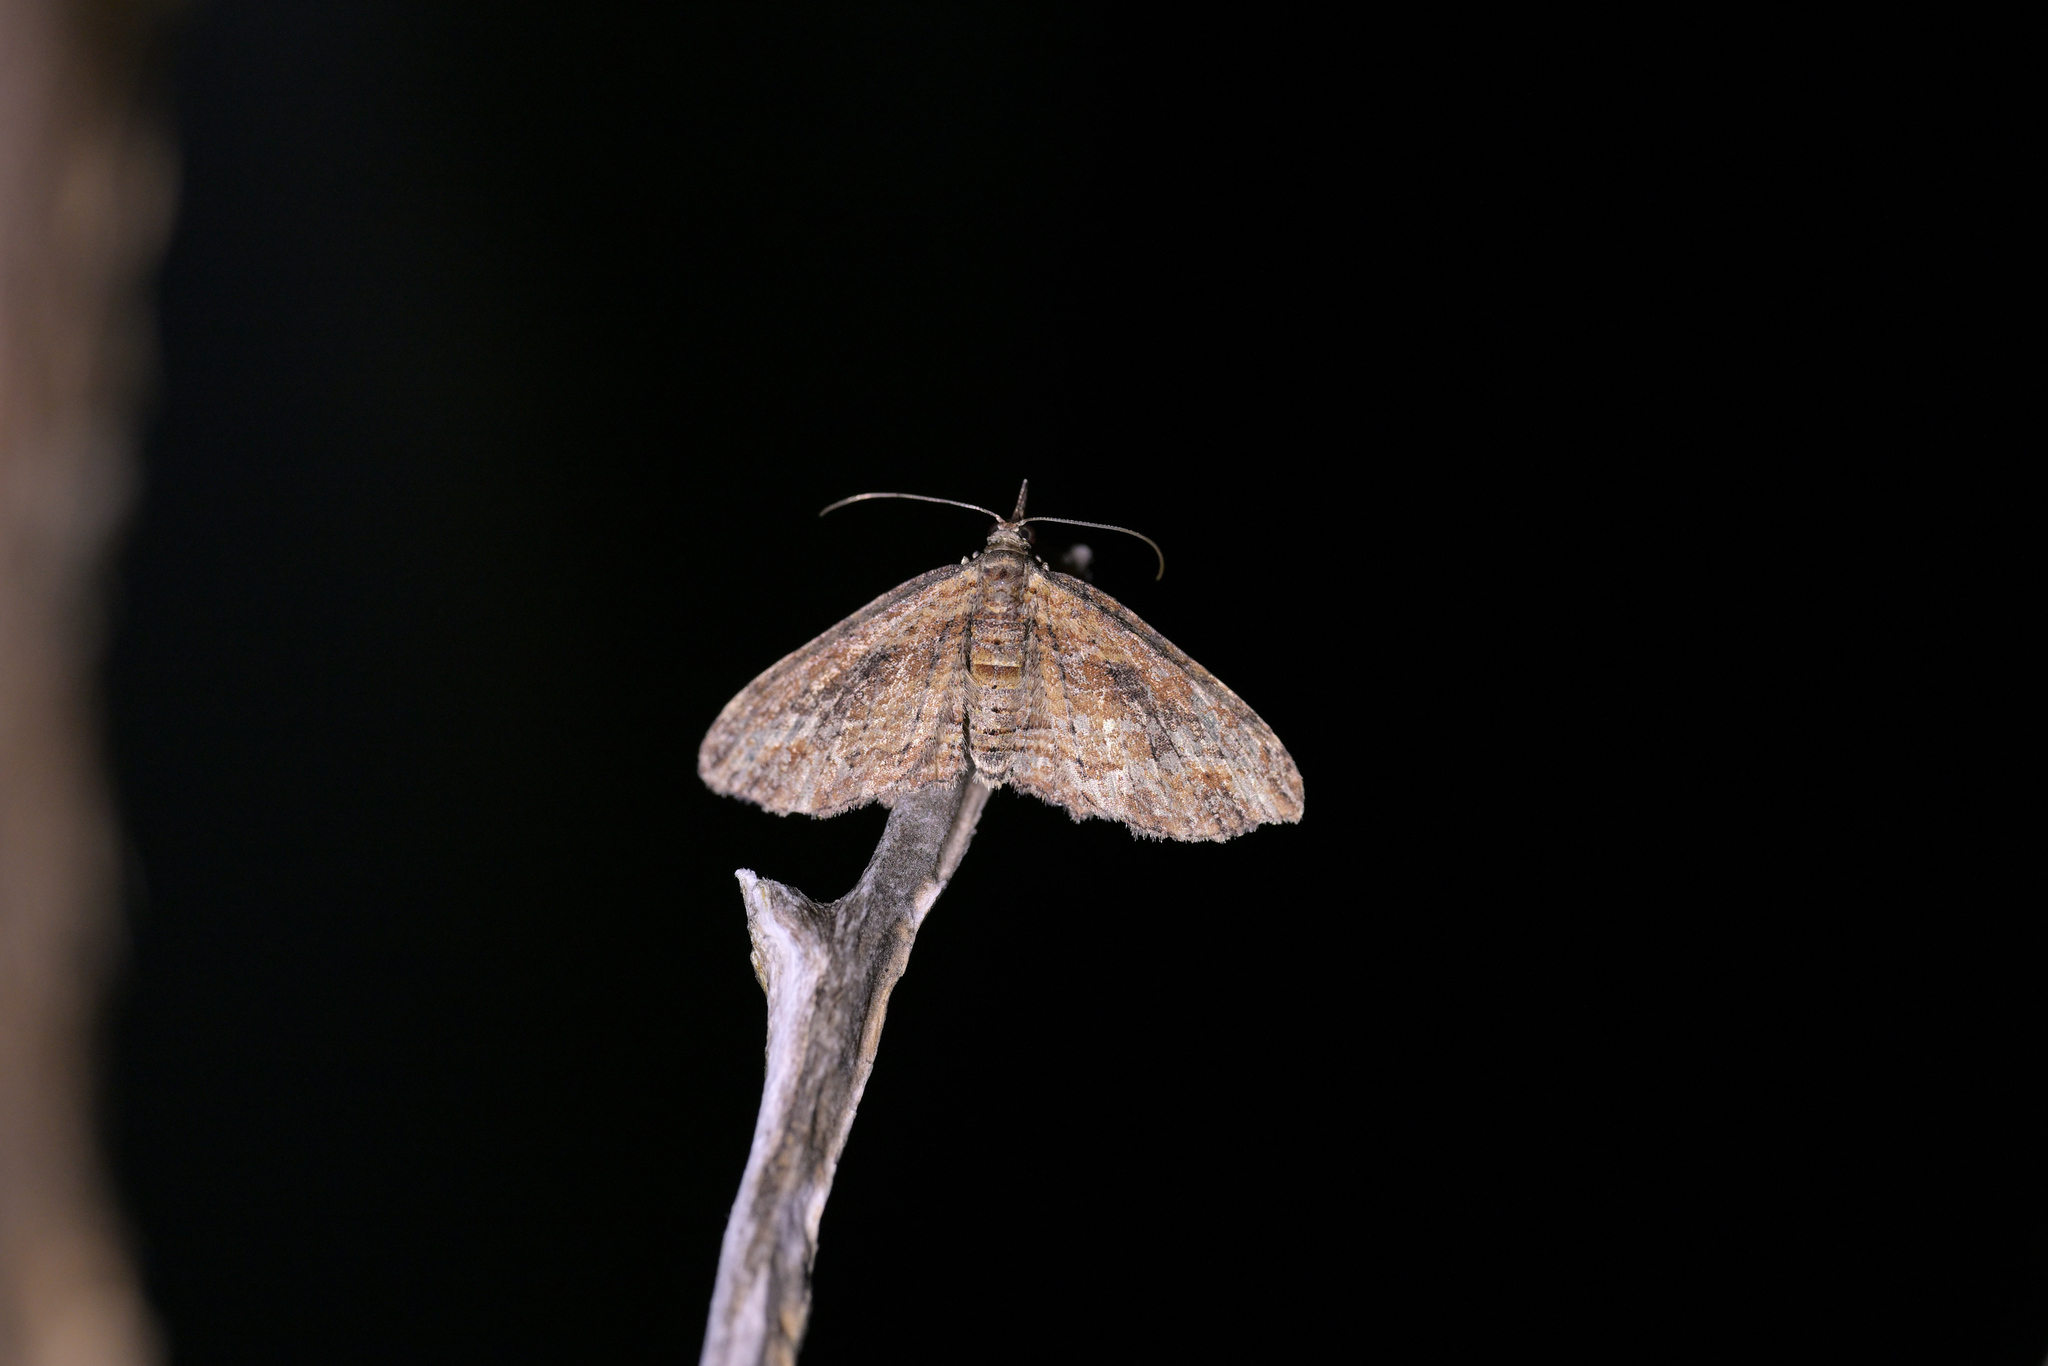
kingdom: Animalia
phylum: Arthropoda
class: Insecta
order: Lepidoptera
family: Geometridae
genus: Chloroclystis
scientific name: Chloroclystis filata
